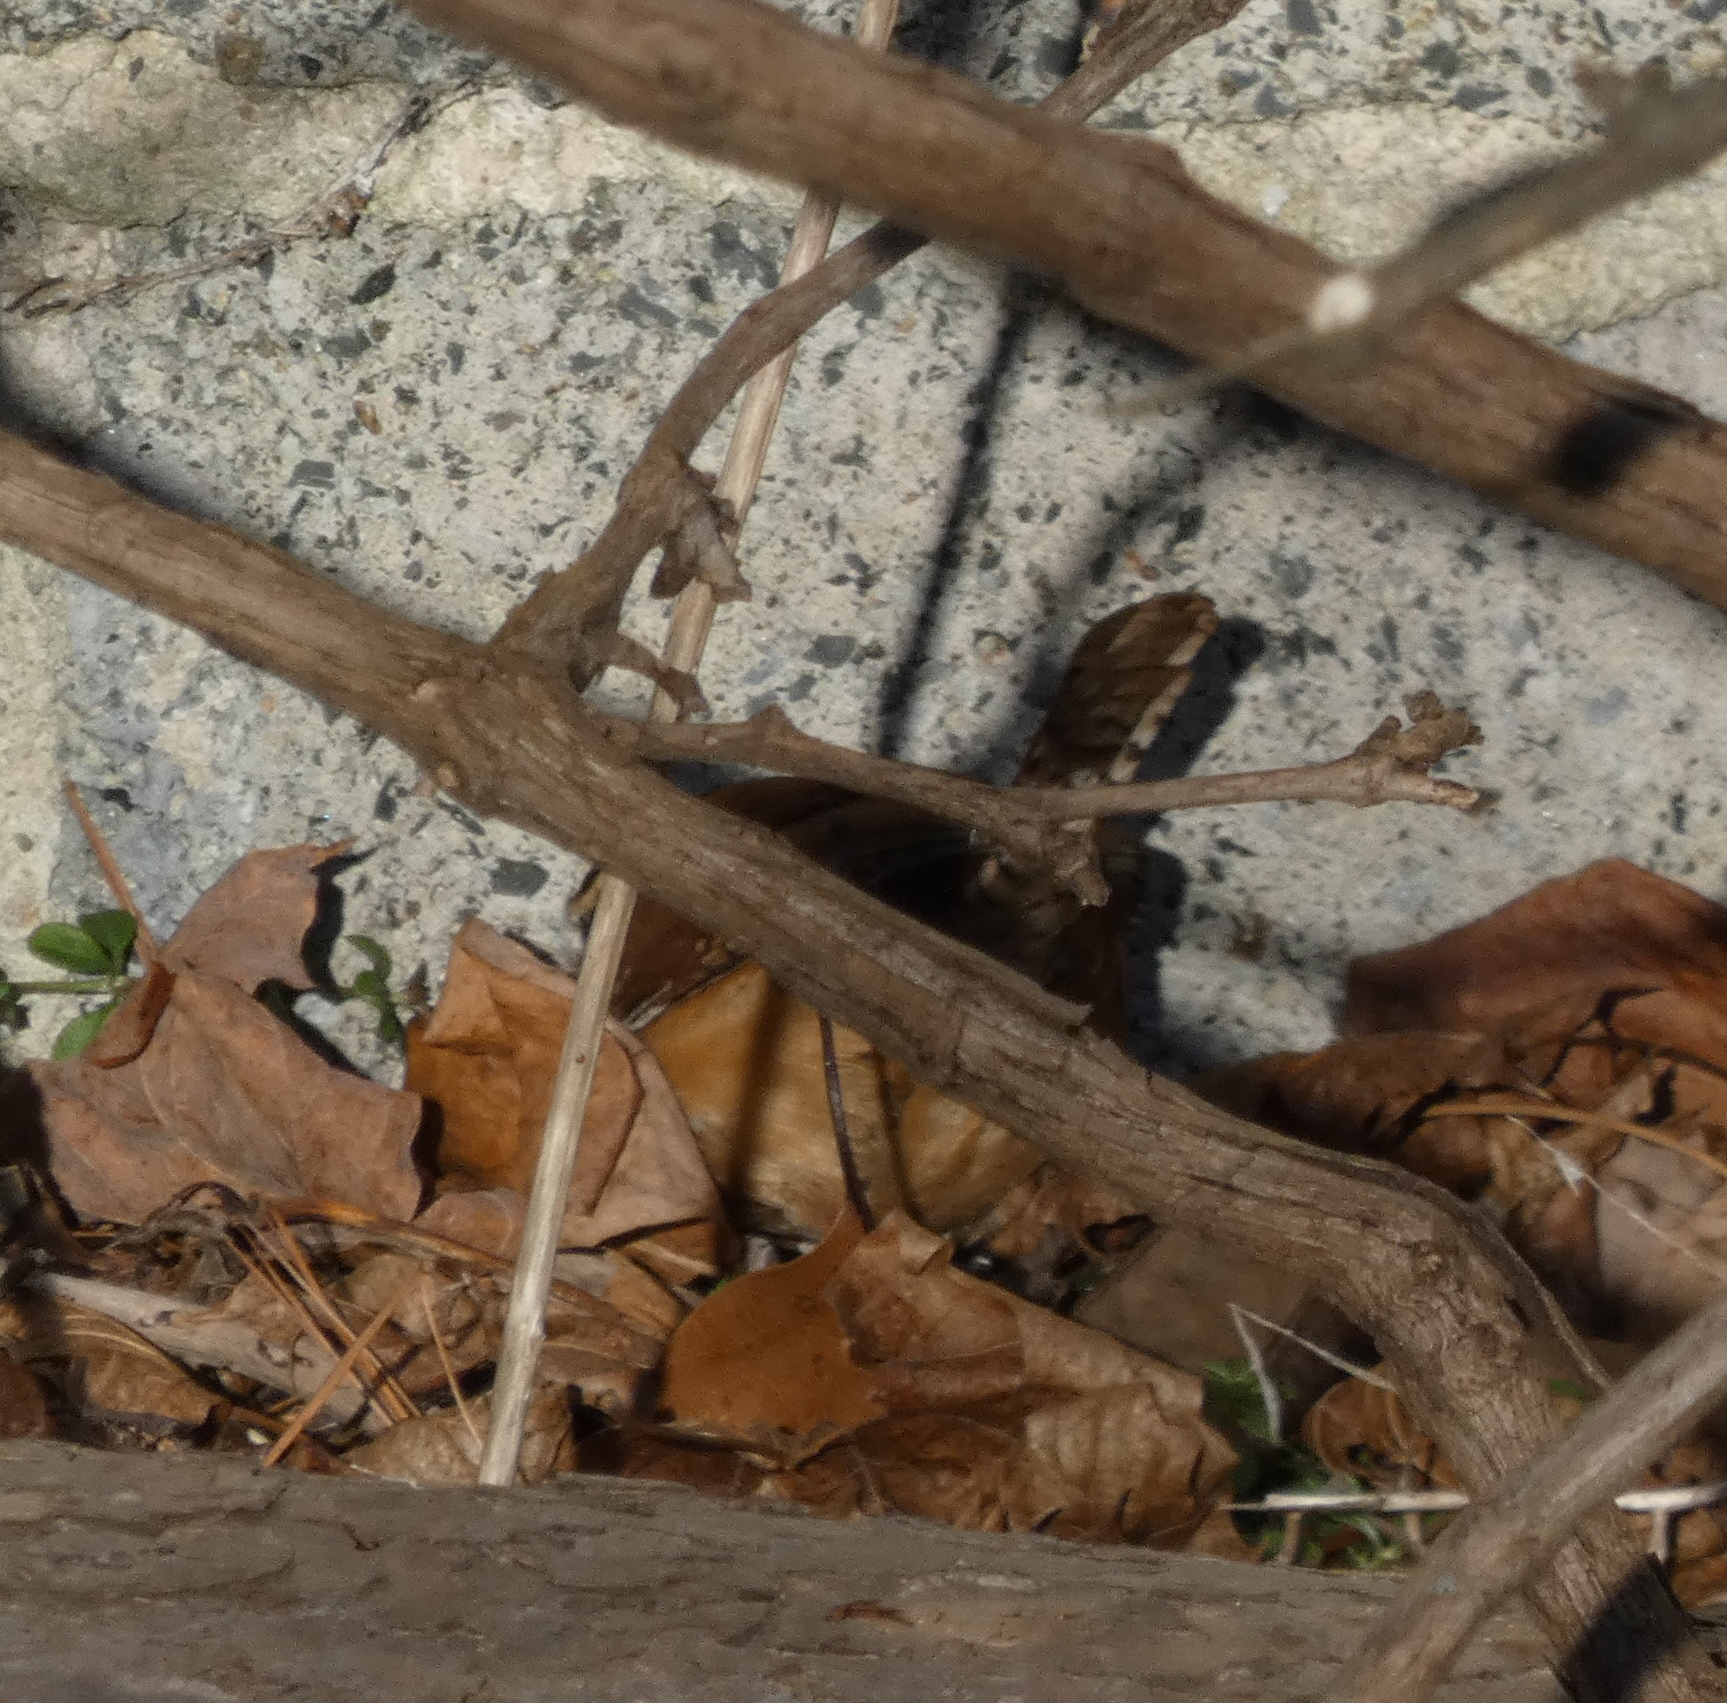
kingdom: Animalia
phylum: Chordata
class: Aves
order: Passeriformes
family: Troglodytidae
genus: Thryothorus
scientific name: Thryothorus ludovicianus
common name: Carolina wren
